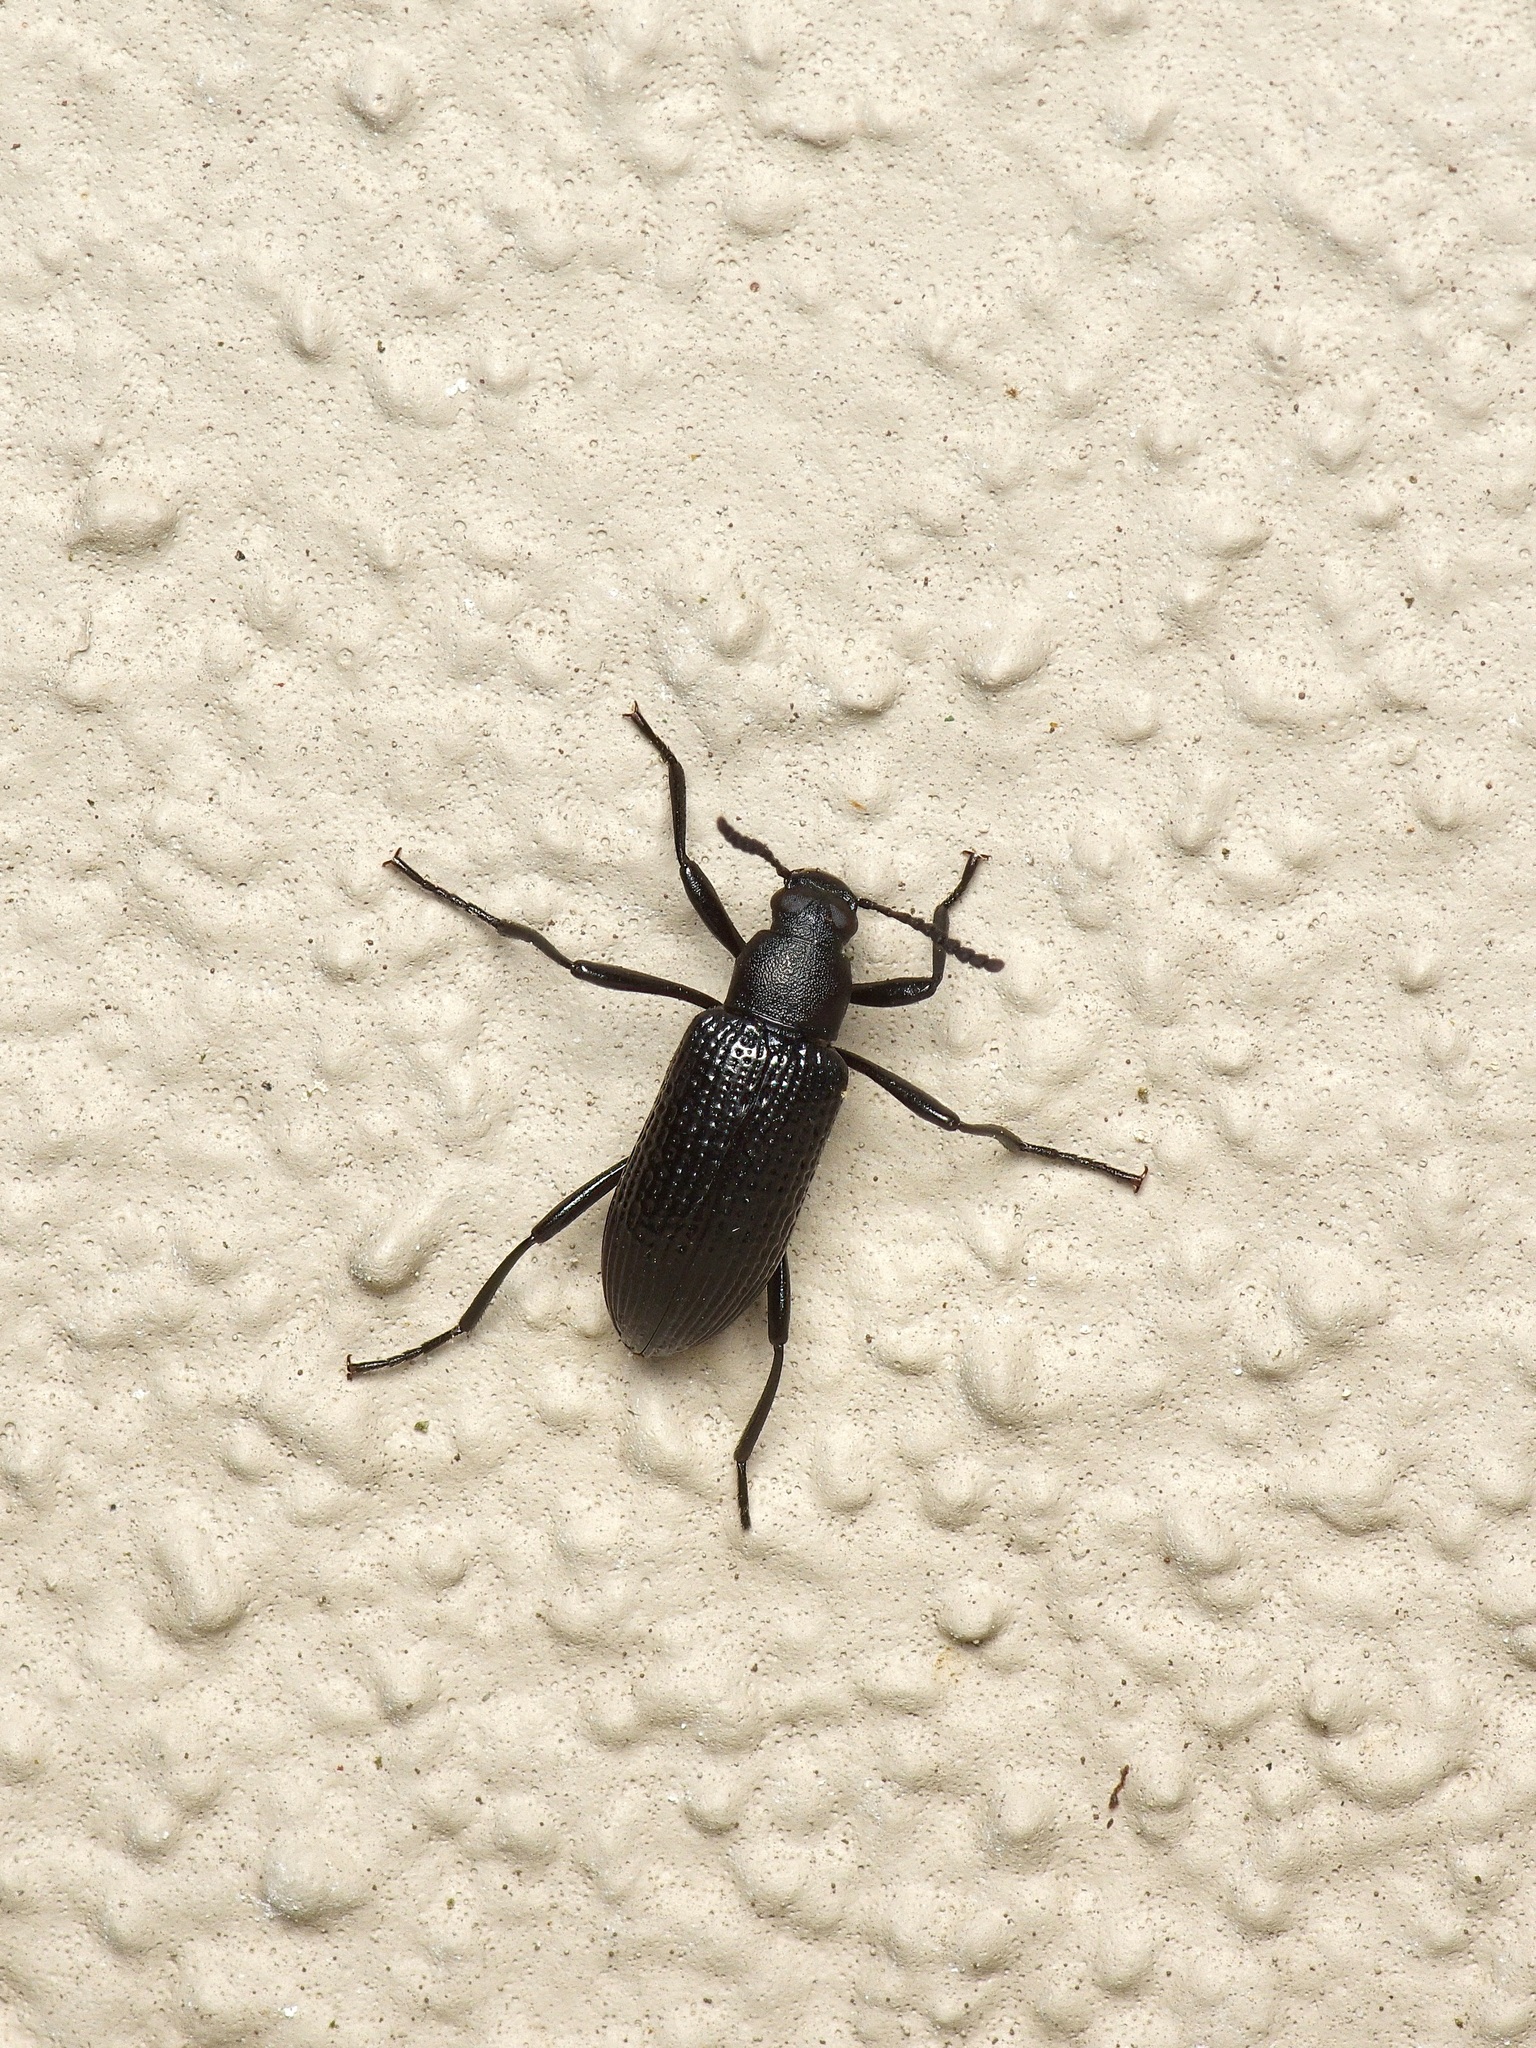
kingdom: Animalia
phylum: Arthropoda
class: Insecta
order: Coleoptera
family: Tenebrionidae
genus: Strongylium
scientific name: Strongylium hemistriatum
